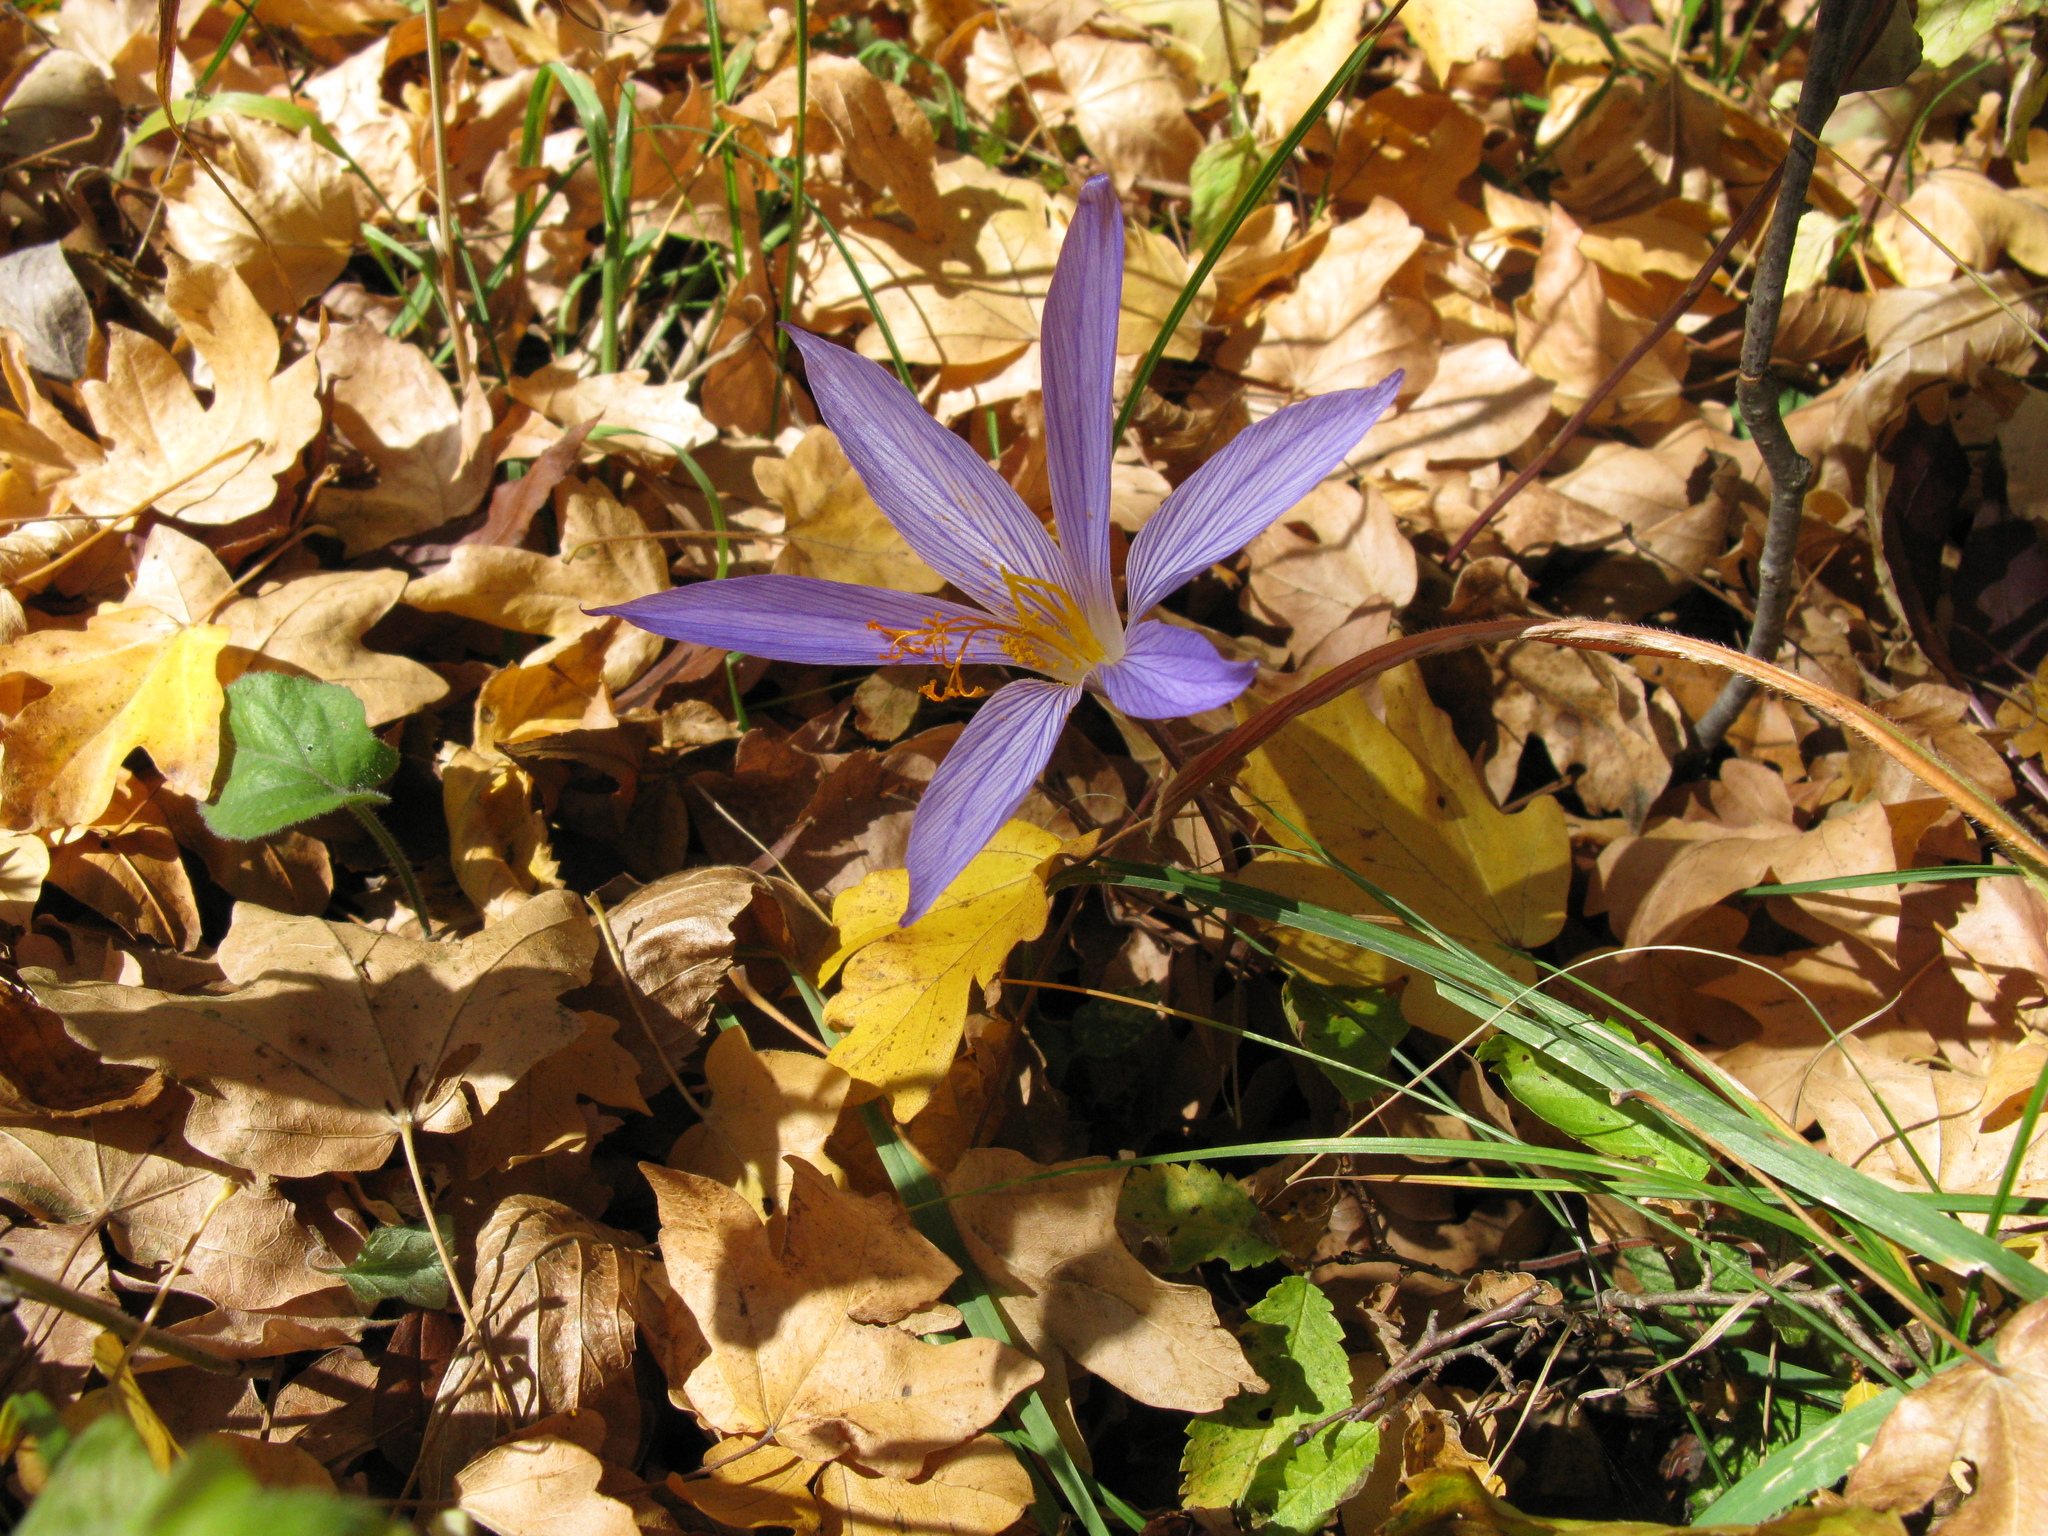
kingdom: Plantae
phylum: Tracheophyta
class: Liliopsida
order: Asparagales
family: Iridaceae
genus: Crocus
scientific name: Crocus speciosus
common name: Bieberstein's crocus
